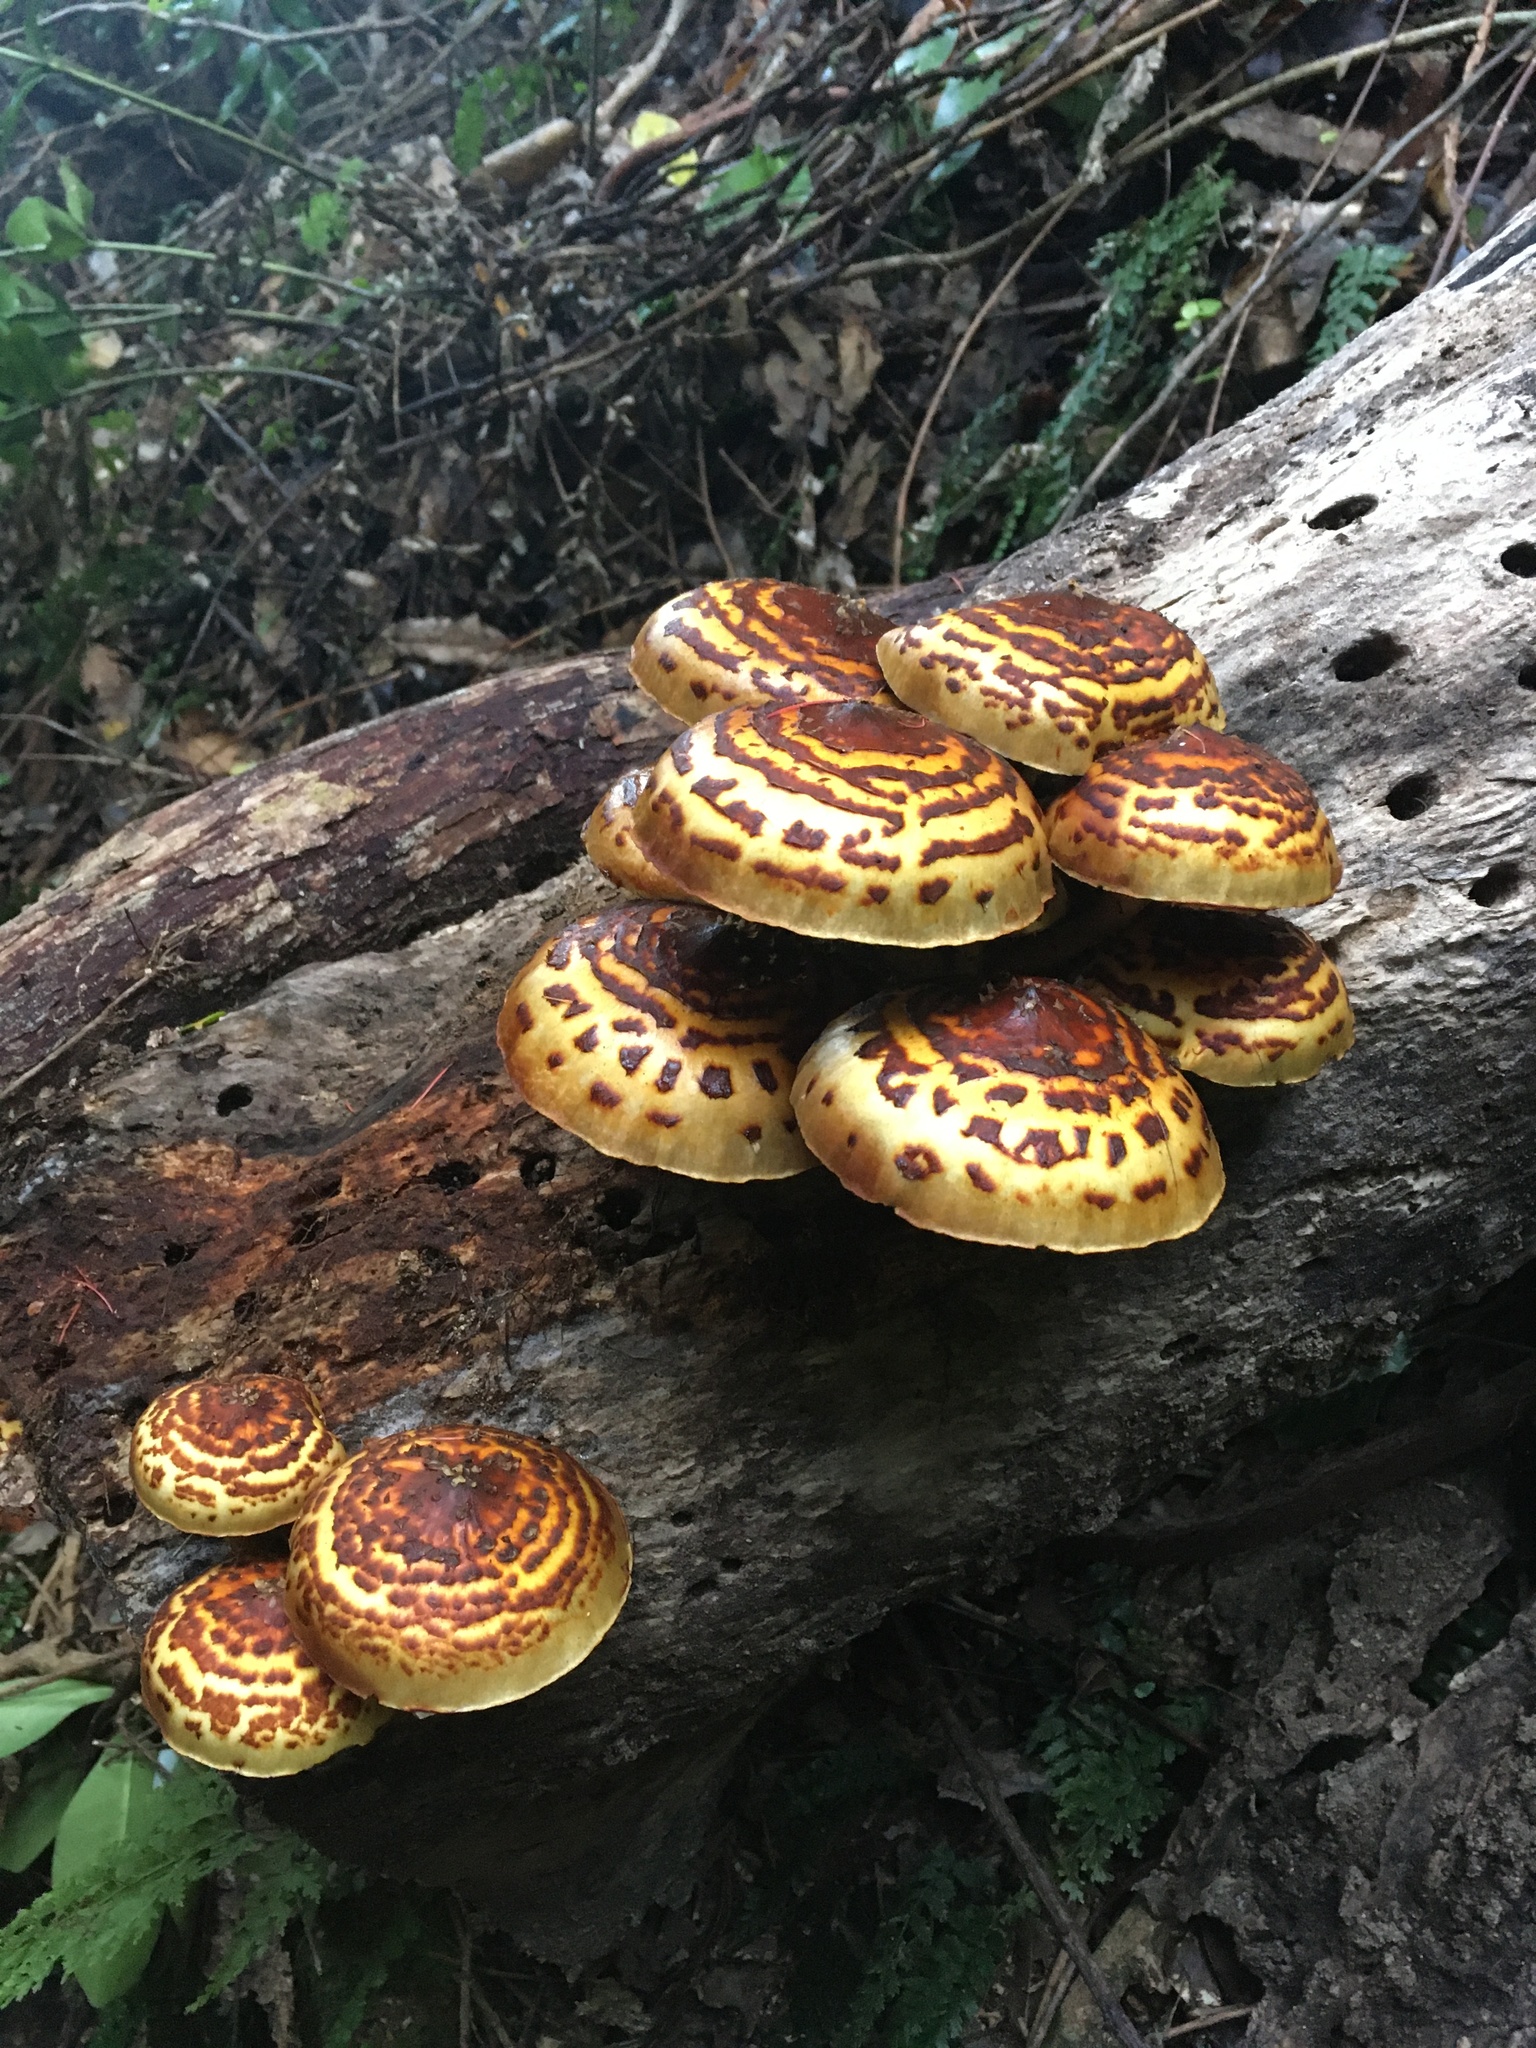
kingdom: Fungi
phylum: Basidiomycota
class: Agaricomycetes
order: Agaricales
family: Strophariaceae
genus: Pholiota
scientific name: Pholiota glutinosa
